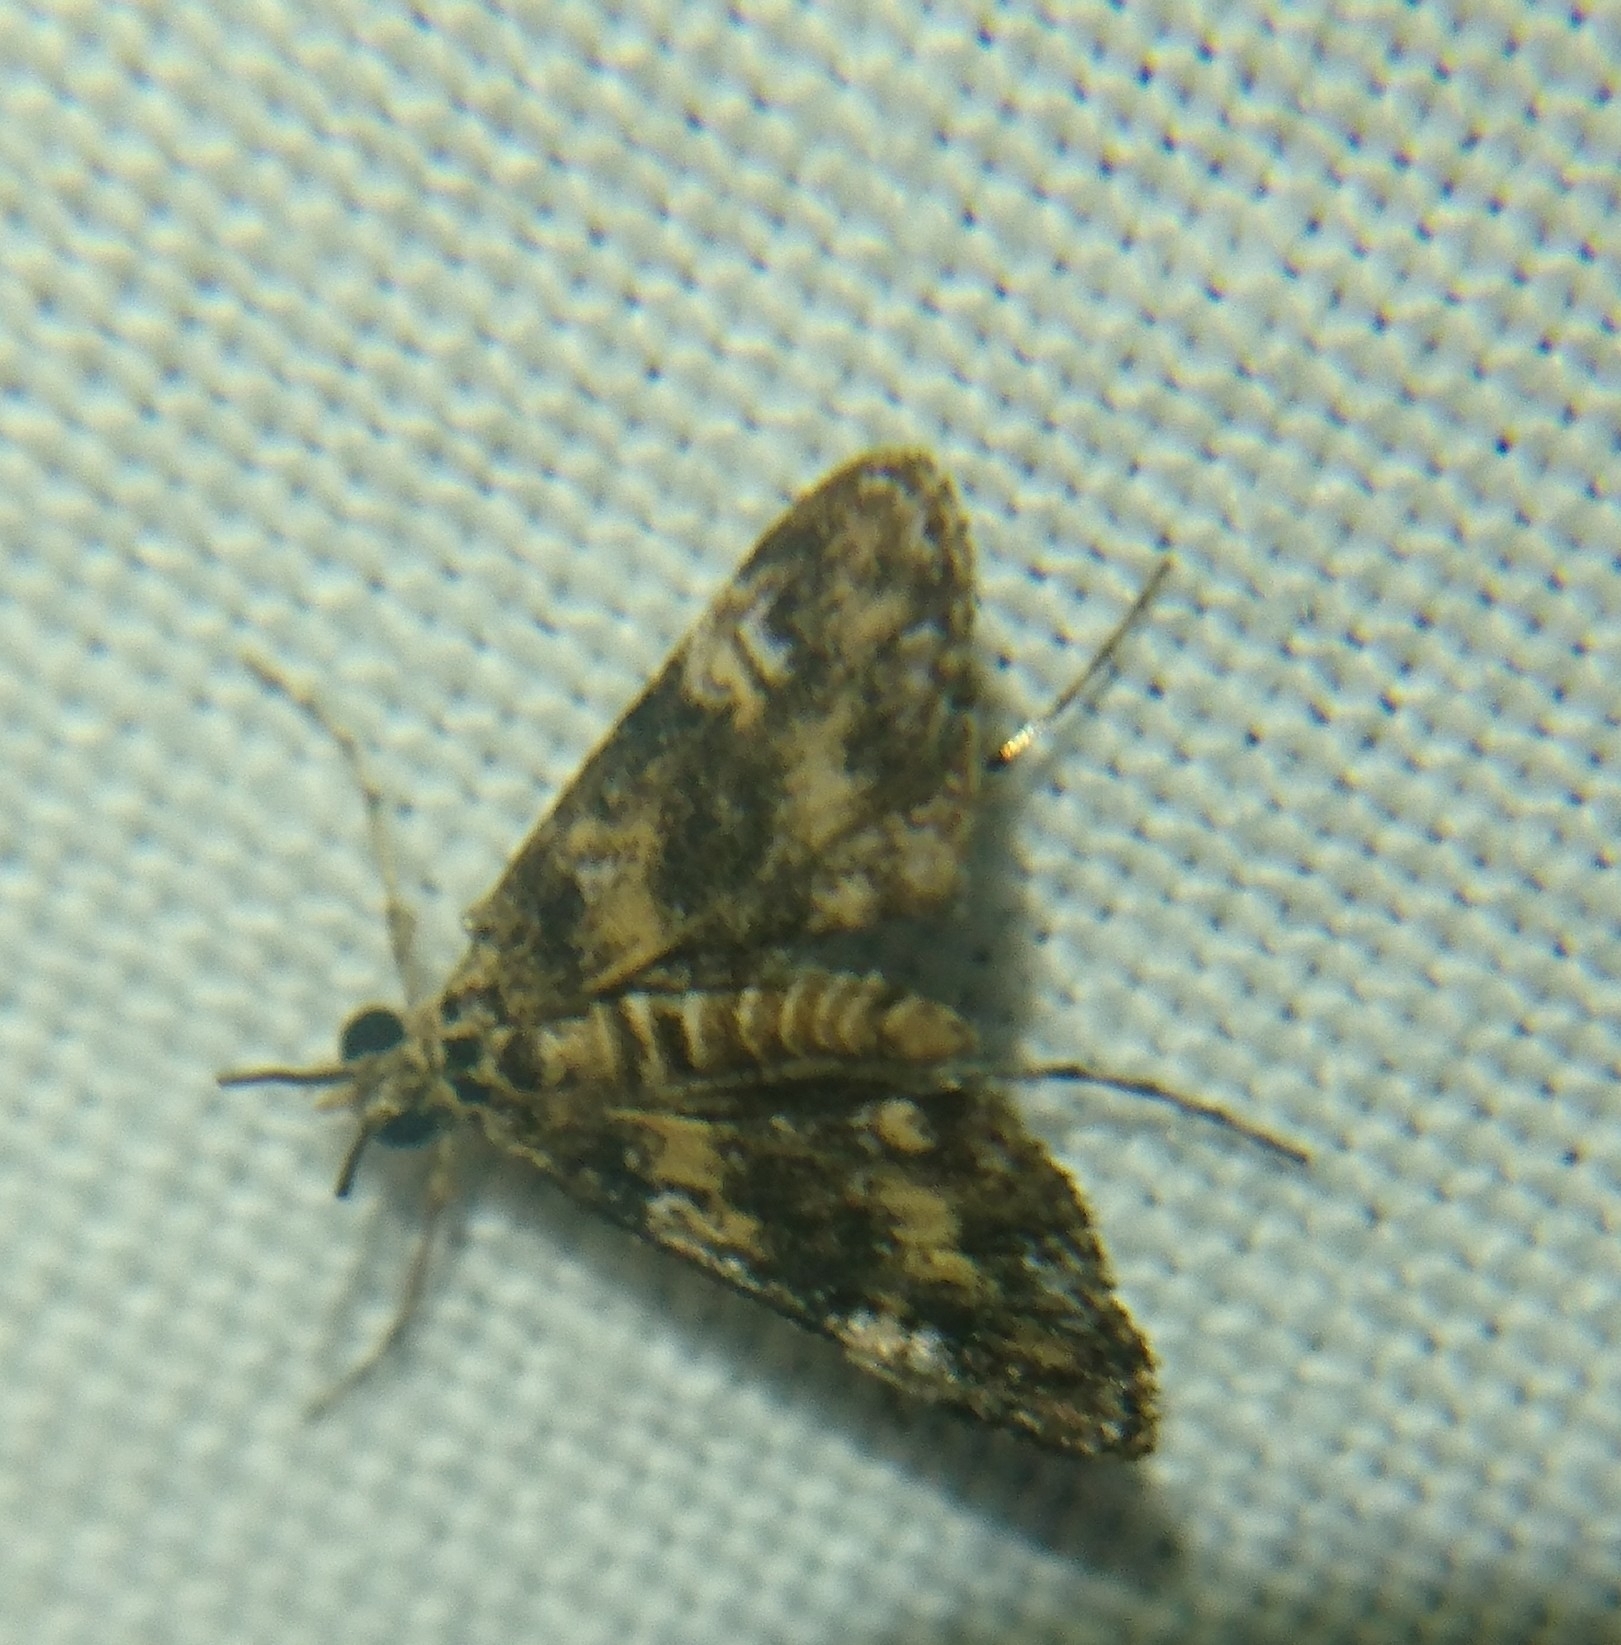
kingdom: Animalia
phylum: Arthropoda
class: Insecta
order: Lepidoptera
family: Crambidae
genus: Elophila
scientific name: Elophila obliteralis
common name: Waterlily leafcutter moth
